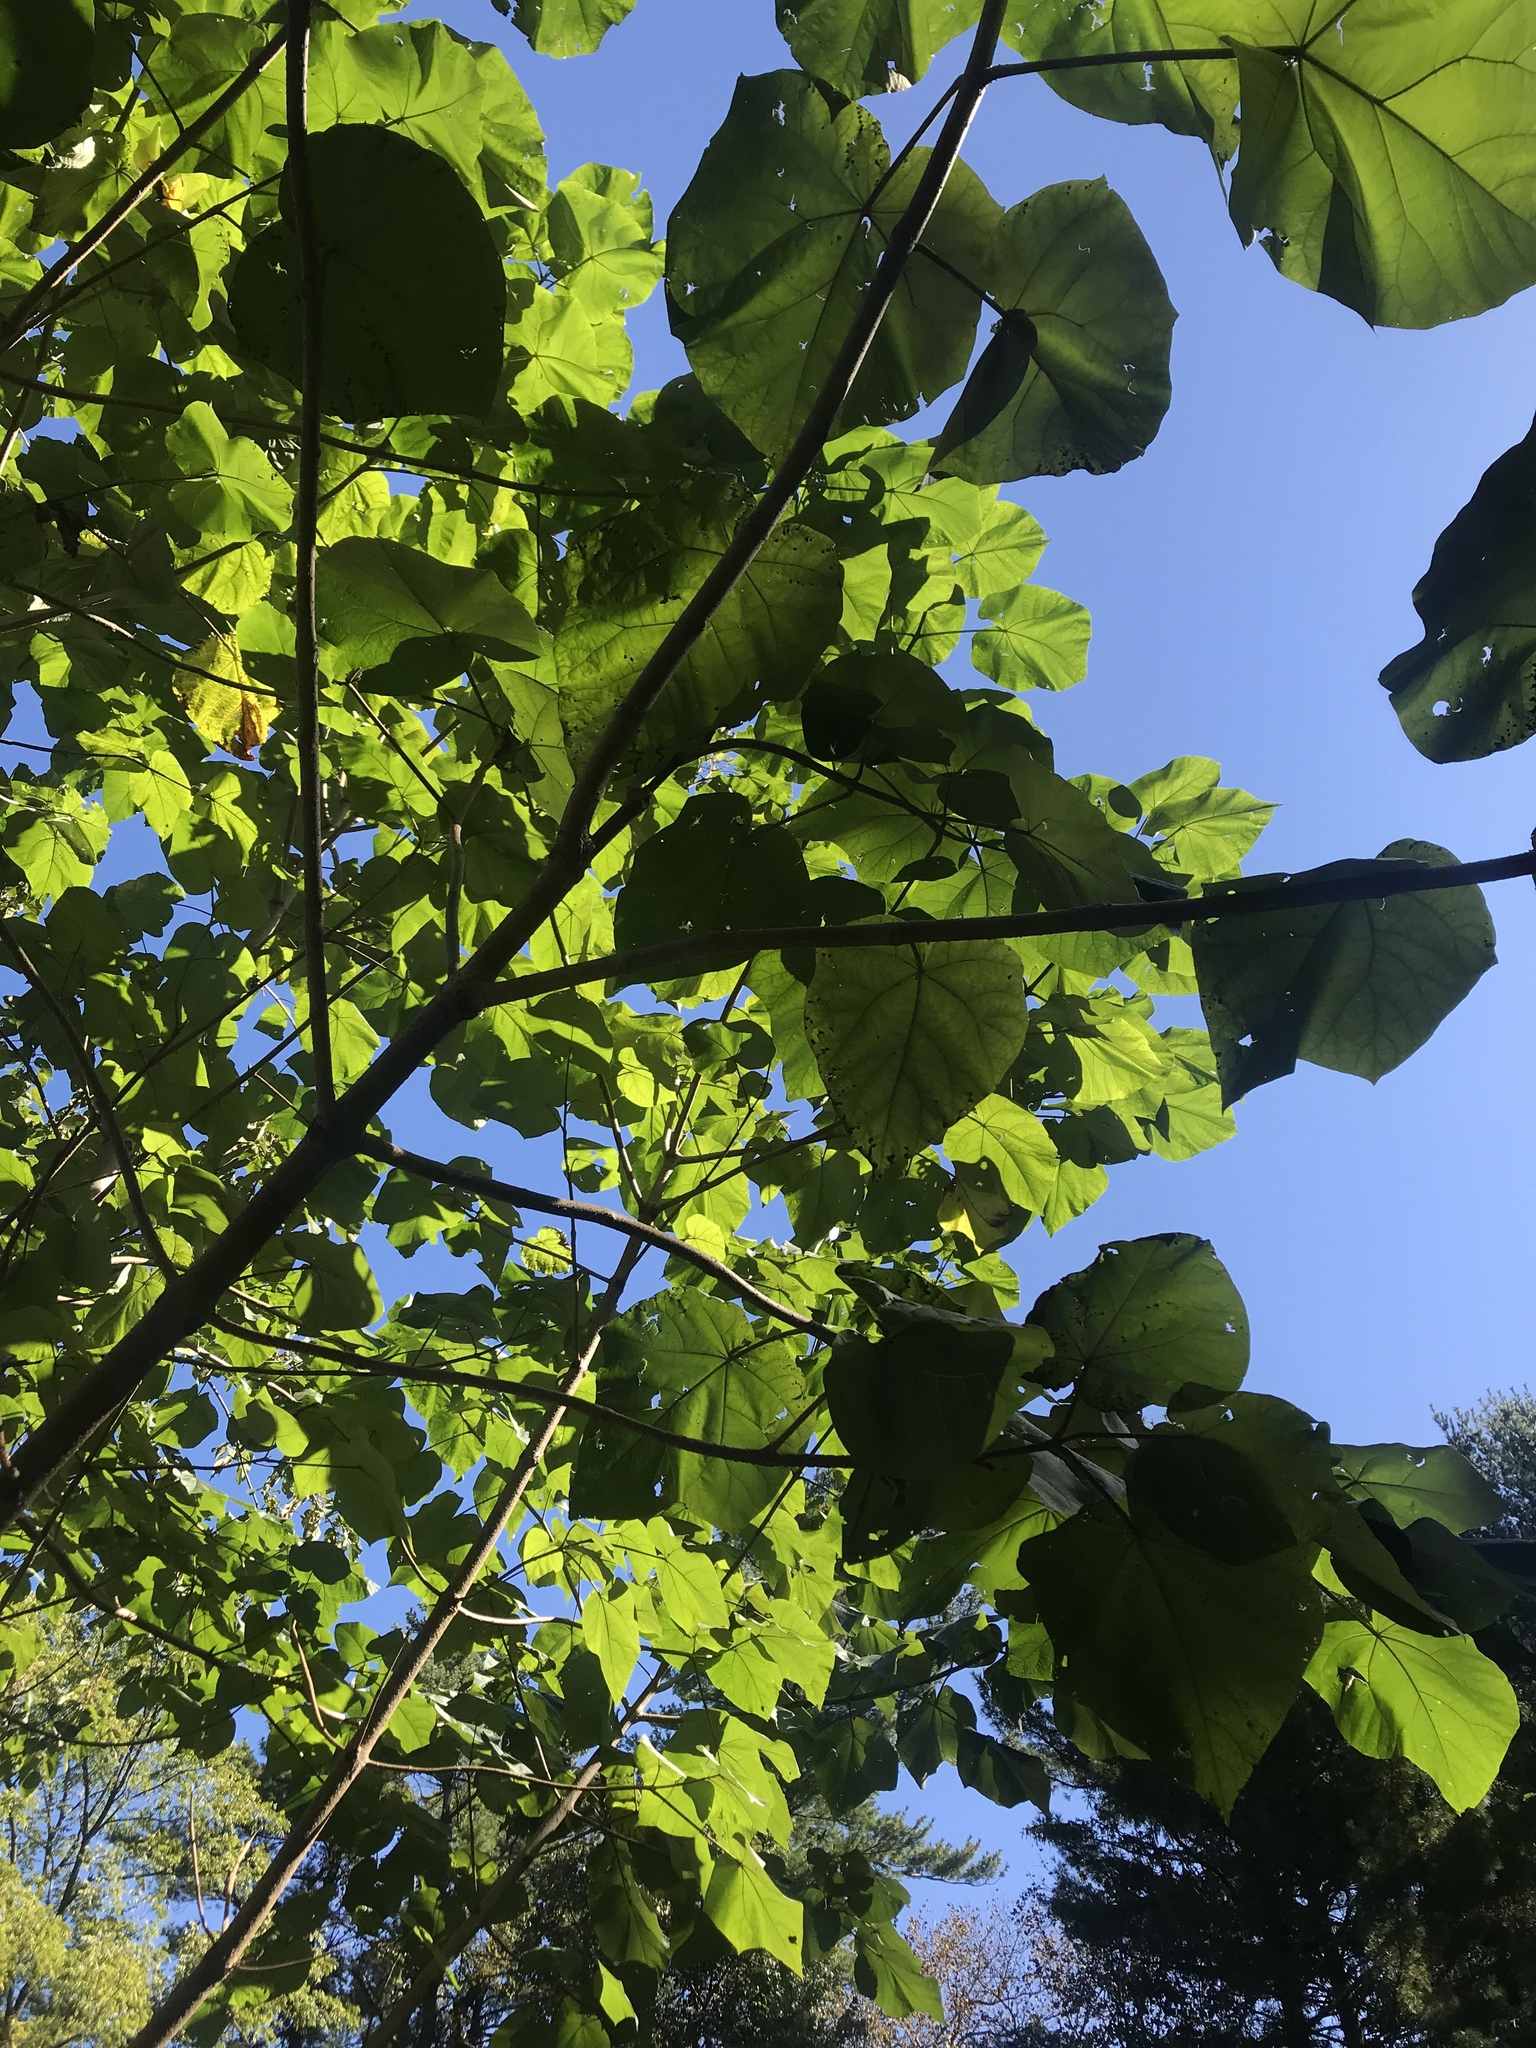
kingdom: Plantae
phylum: Tracheophyta
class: Magnoliopsida
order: Lamiales
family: Paulowniaceae
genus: Paulownia
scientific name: Paulownia tomentosa
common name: Foxglove-tree
